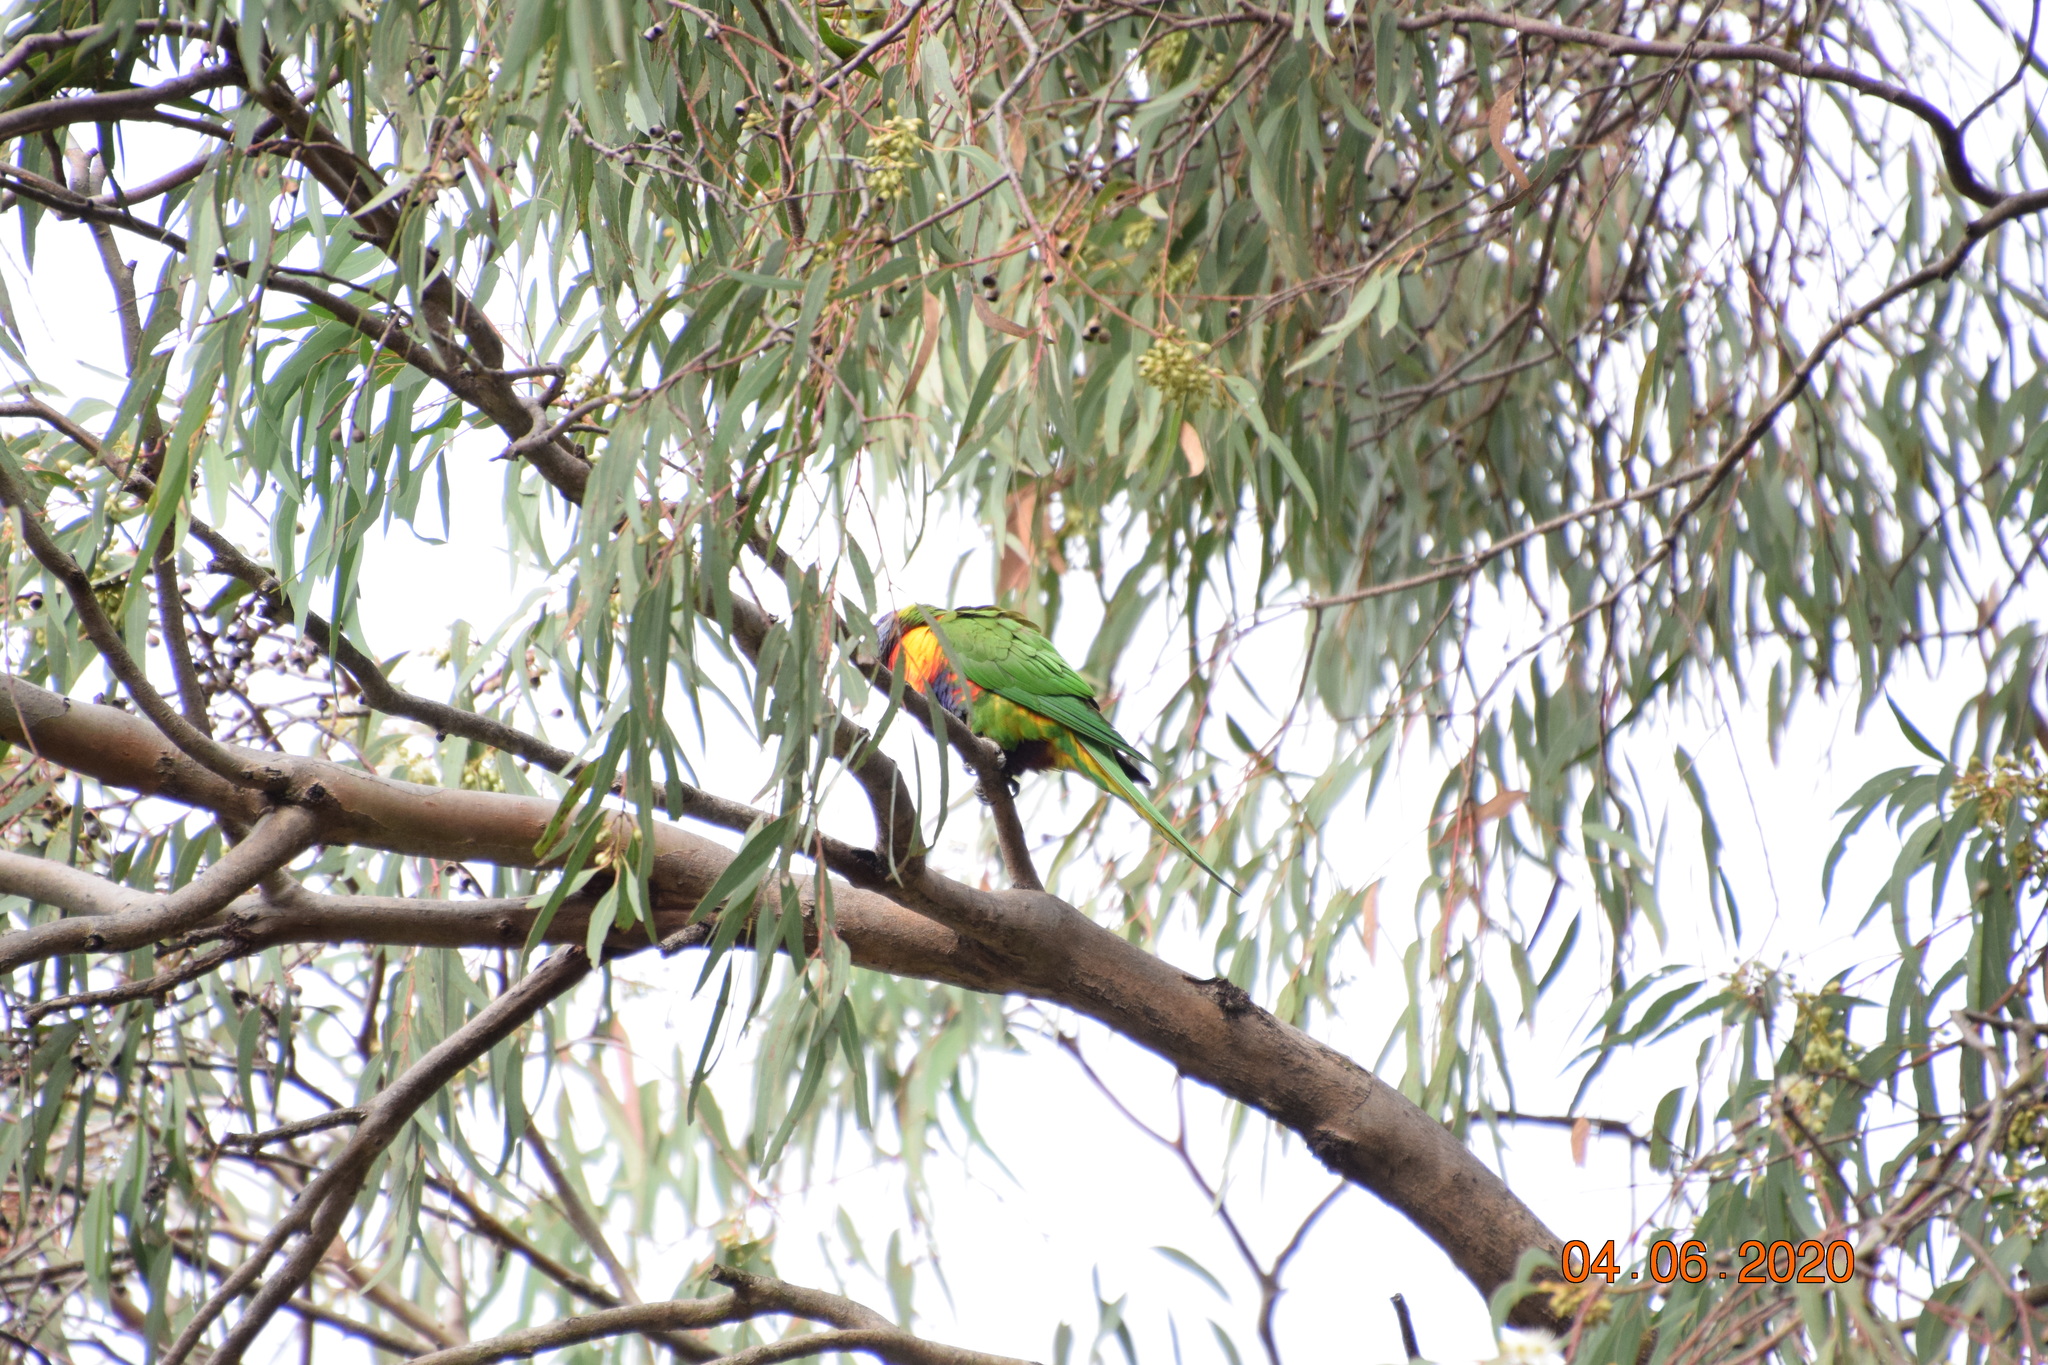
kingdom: Animalia
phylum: Chordata
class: Aves
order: Psittaciformes
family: Psittacidae
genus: Trichoglossus
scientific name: Trichoglossus haematodus
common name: Coconut lorikeet
